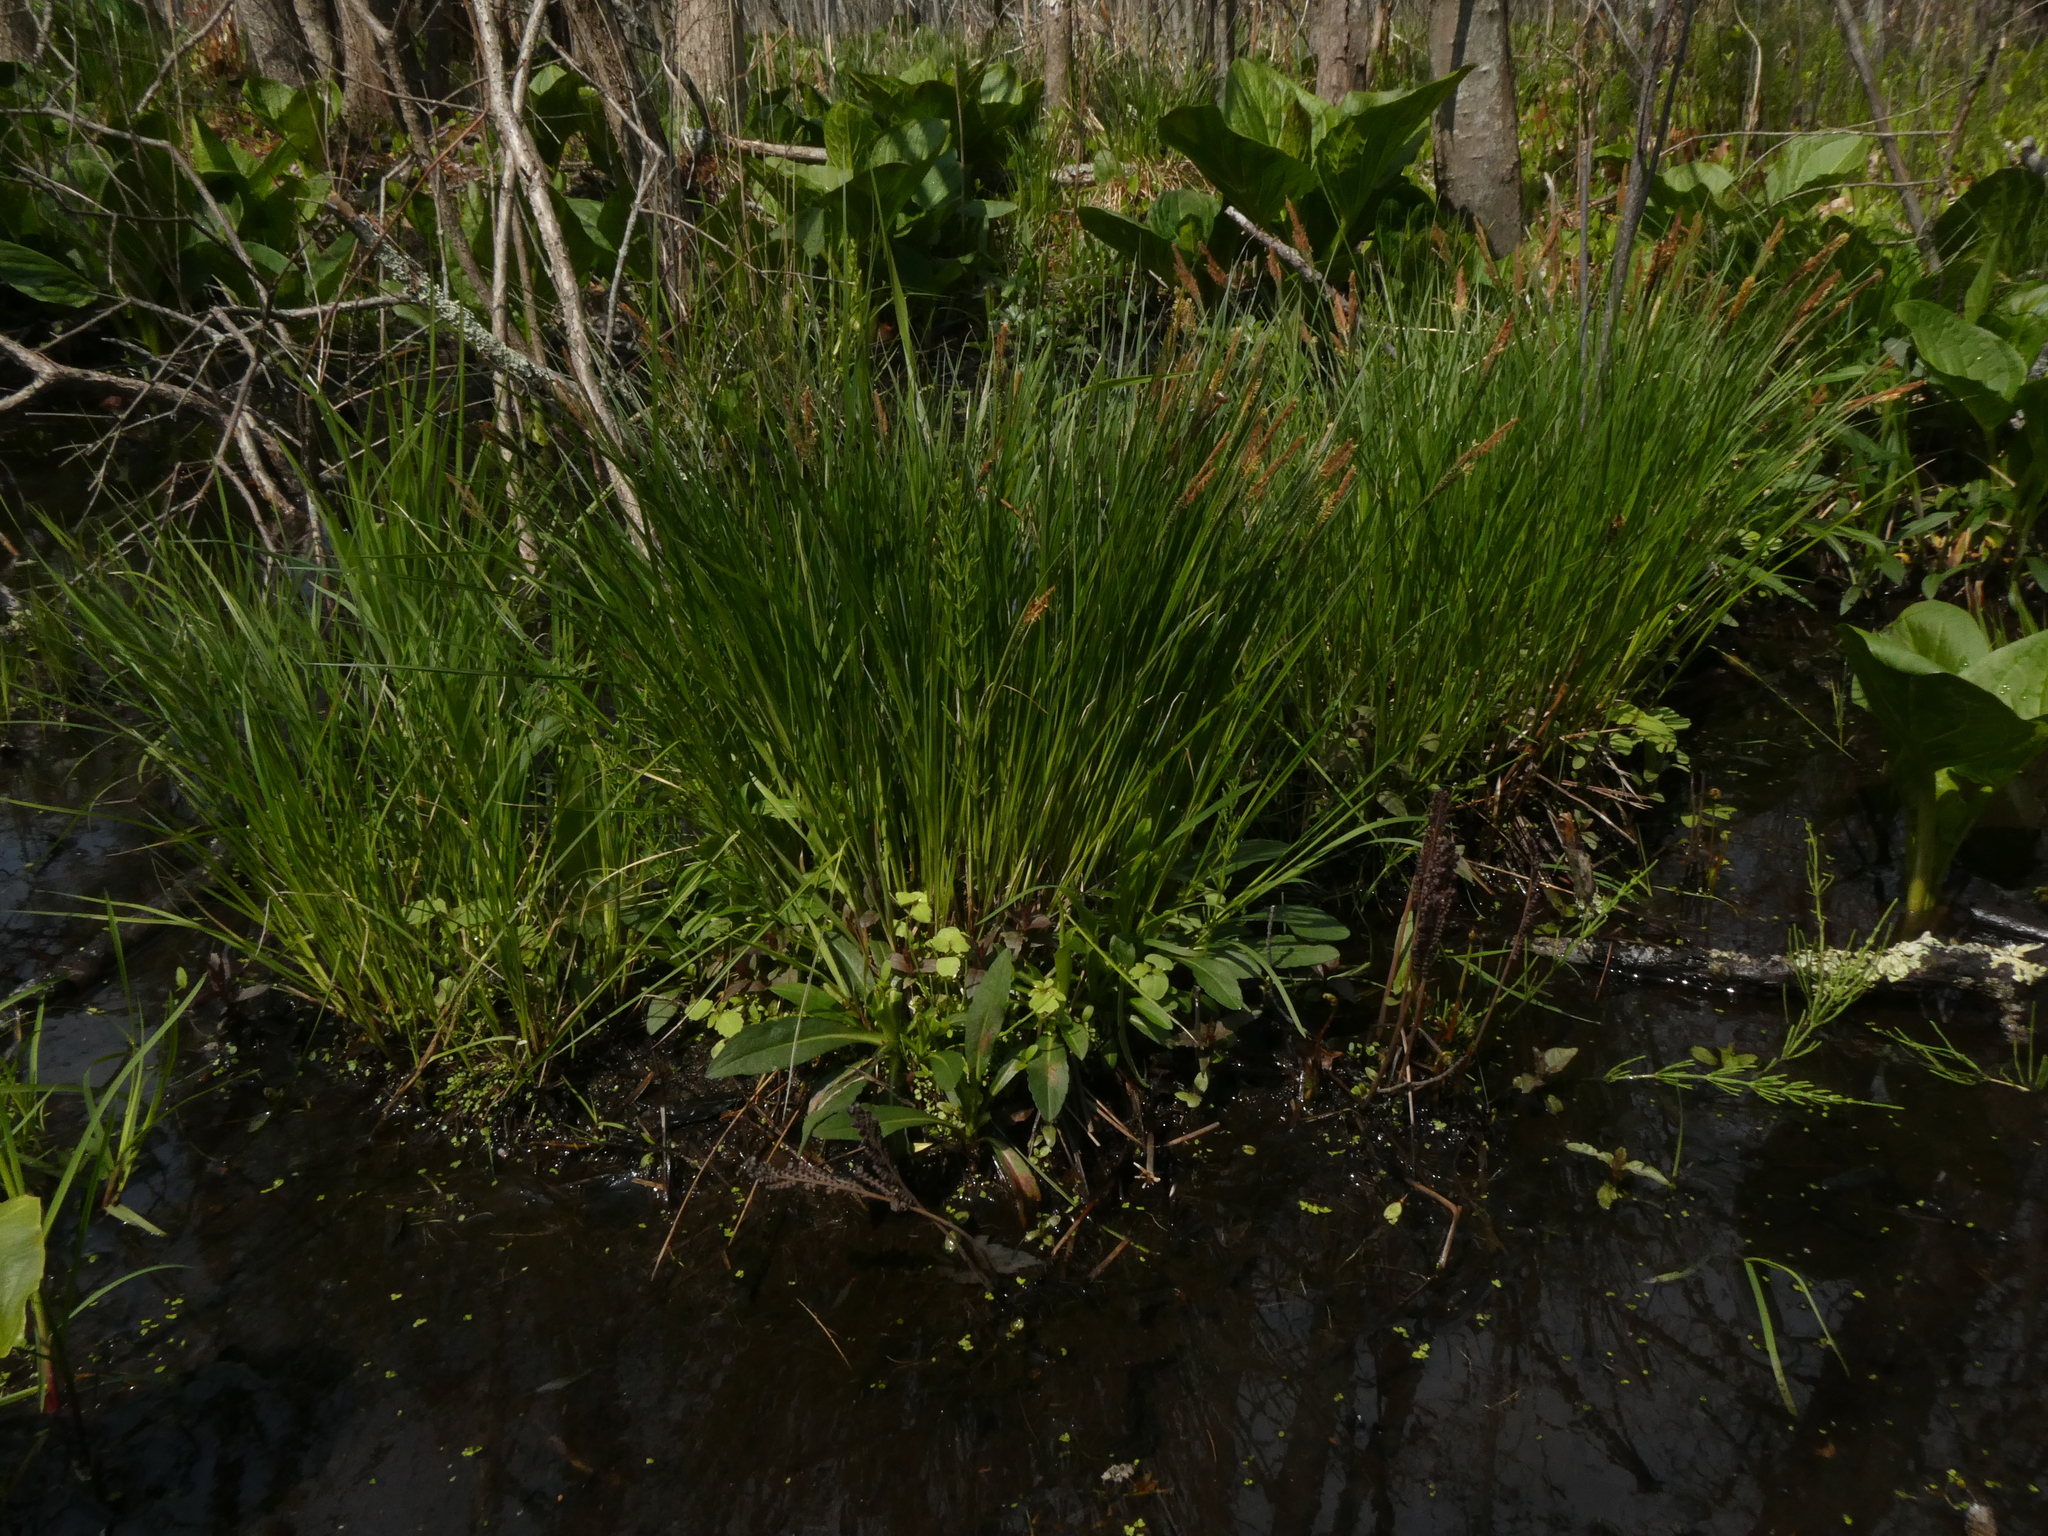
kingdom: Plantae
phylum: Tracheophyta
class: Liliopsida
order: Poales
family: Cyperaceae
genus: Carex
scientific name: Carex stricta
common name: Hummock sedge
